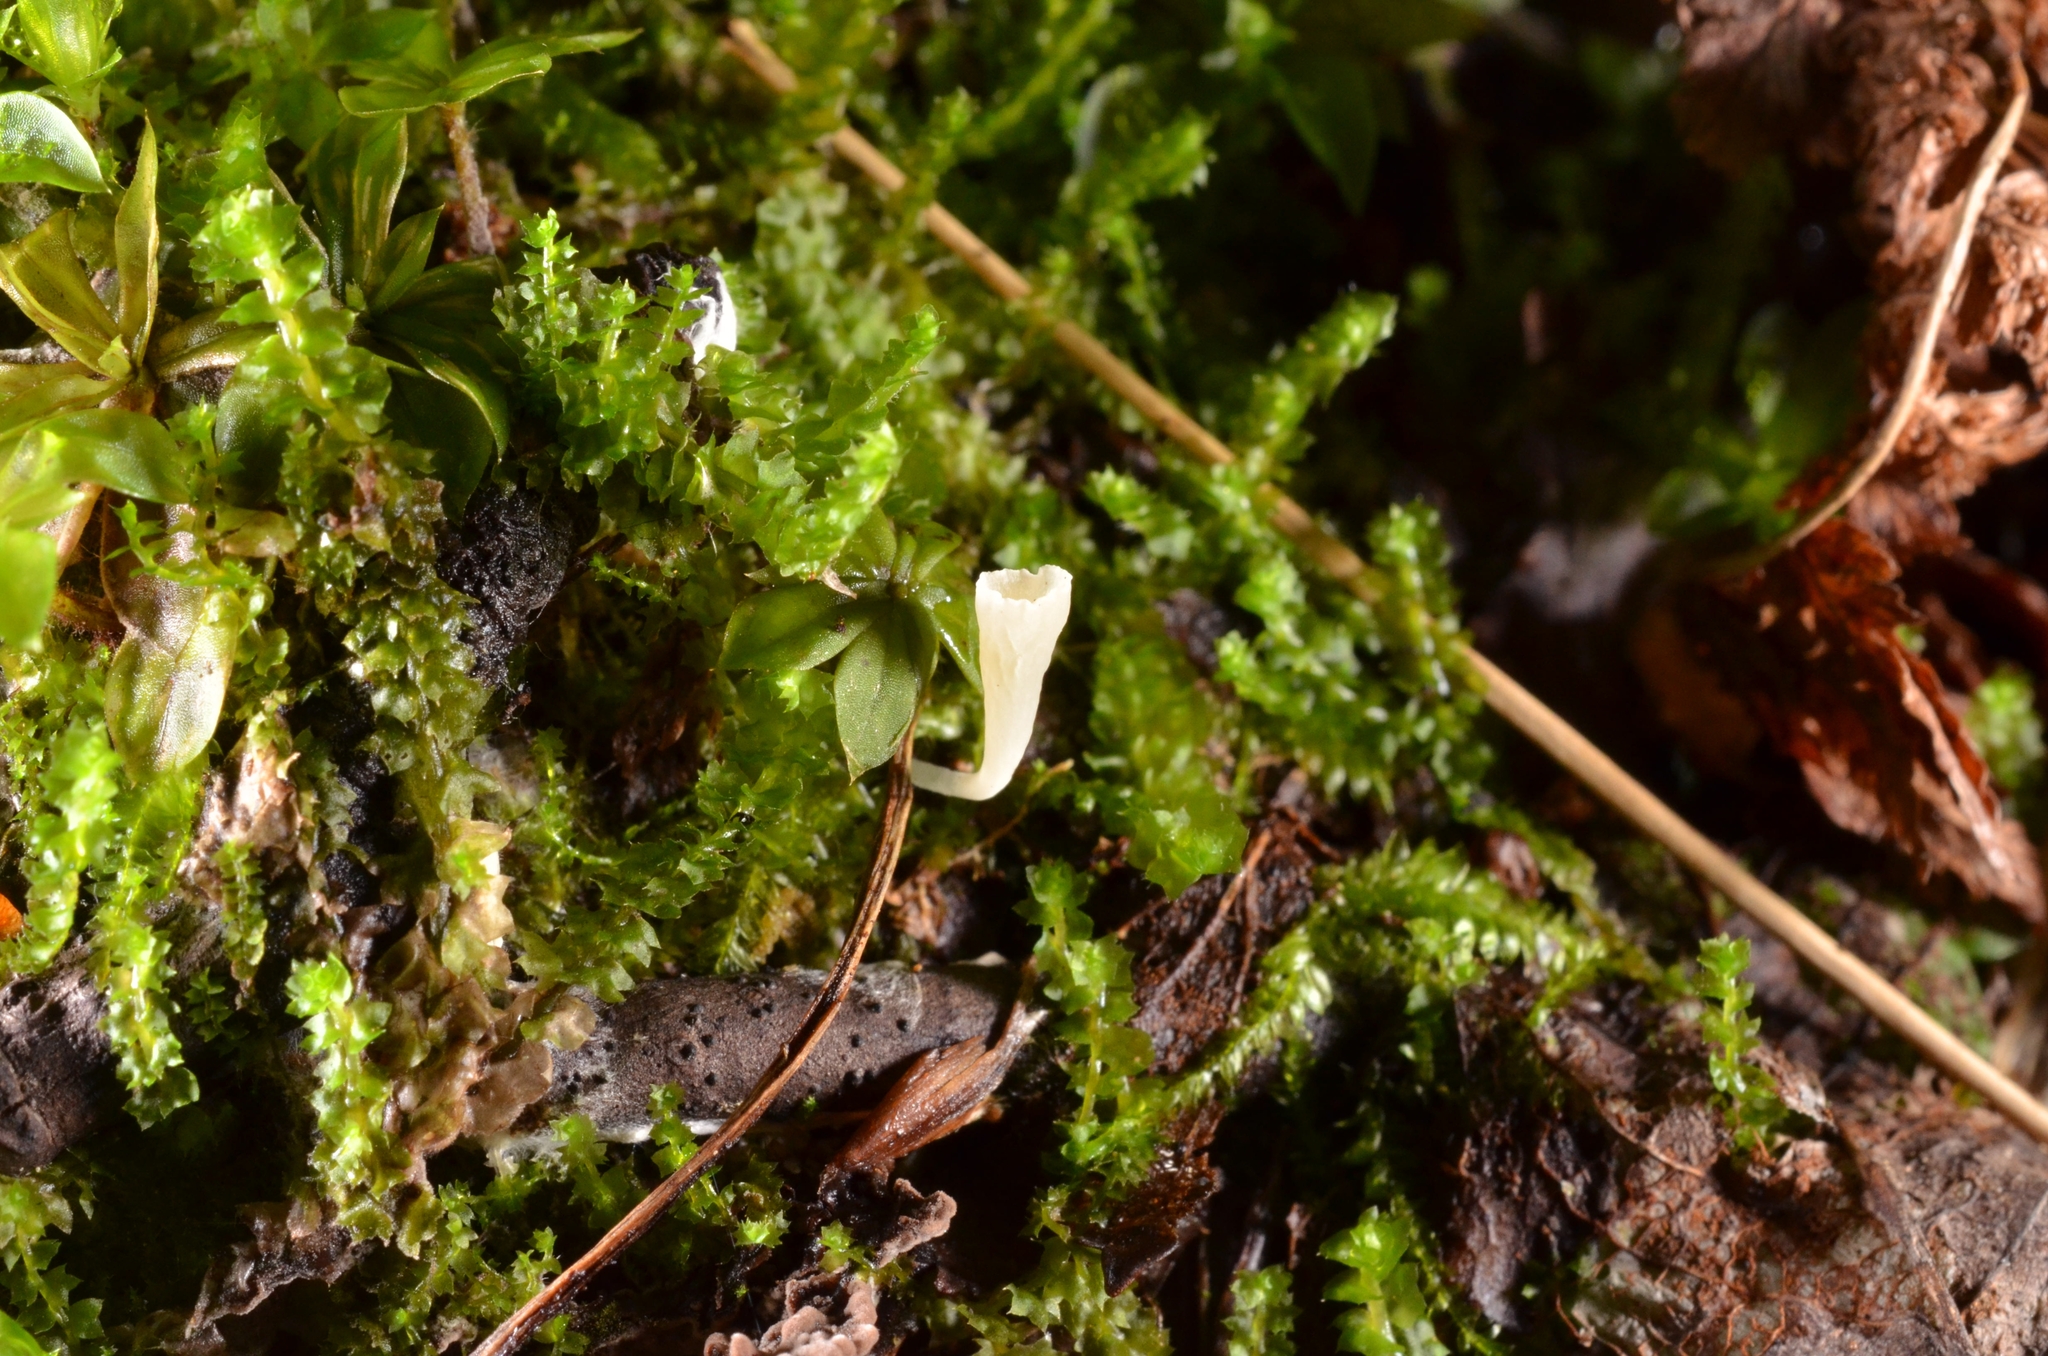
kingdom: Fungi
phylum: Basidiomycota
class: Agaricomycetes
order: Agaricales
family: Clavariaceae
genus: Clavicorona
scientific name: Clavicorona taxophila
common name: Yew club
